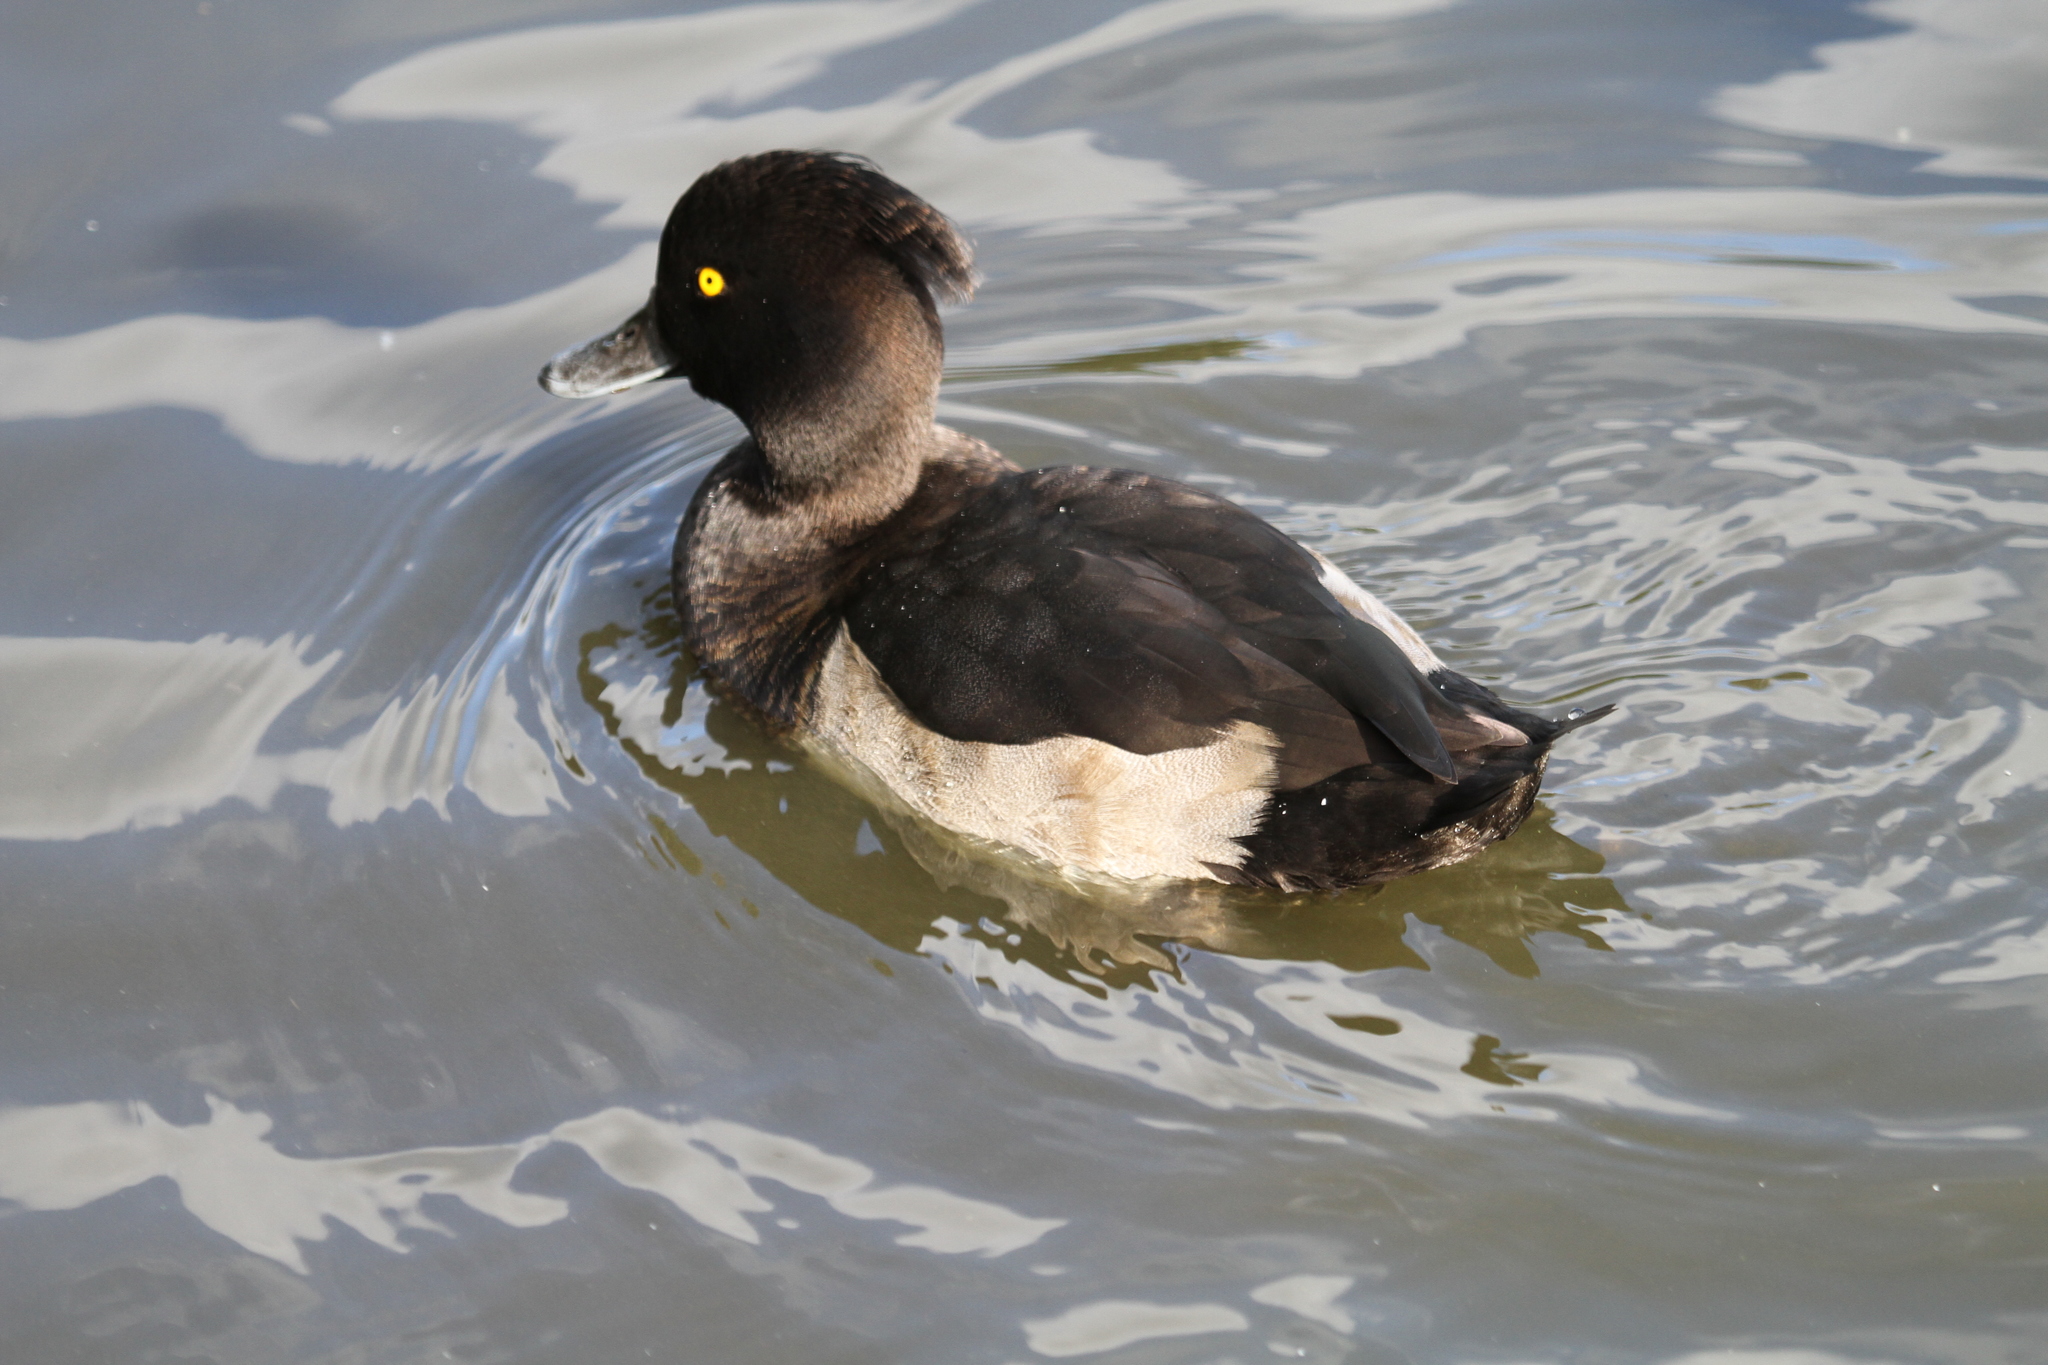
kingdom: Animalia
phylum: Chordata
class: Aves
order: Anseriformes
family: Anatidae
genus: Aythya
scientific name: Aythya fuligula
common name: Tufted duck
